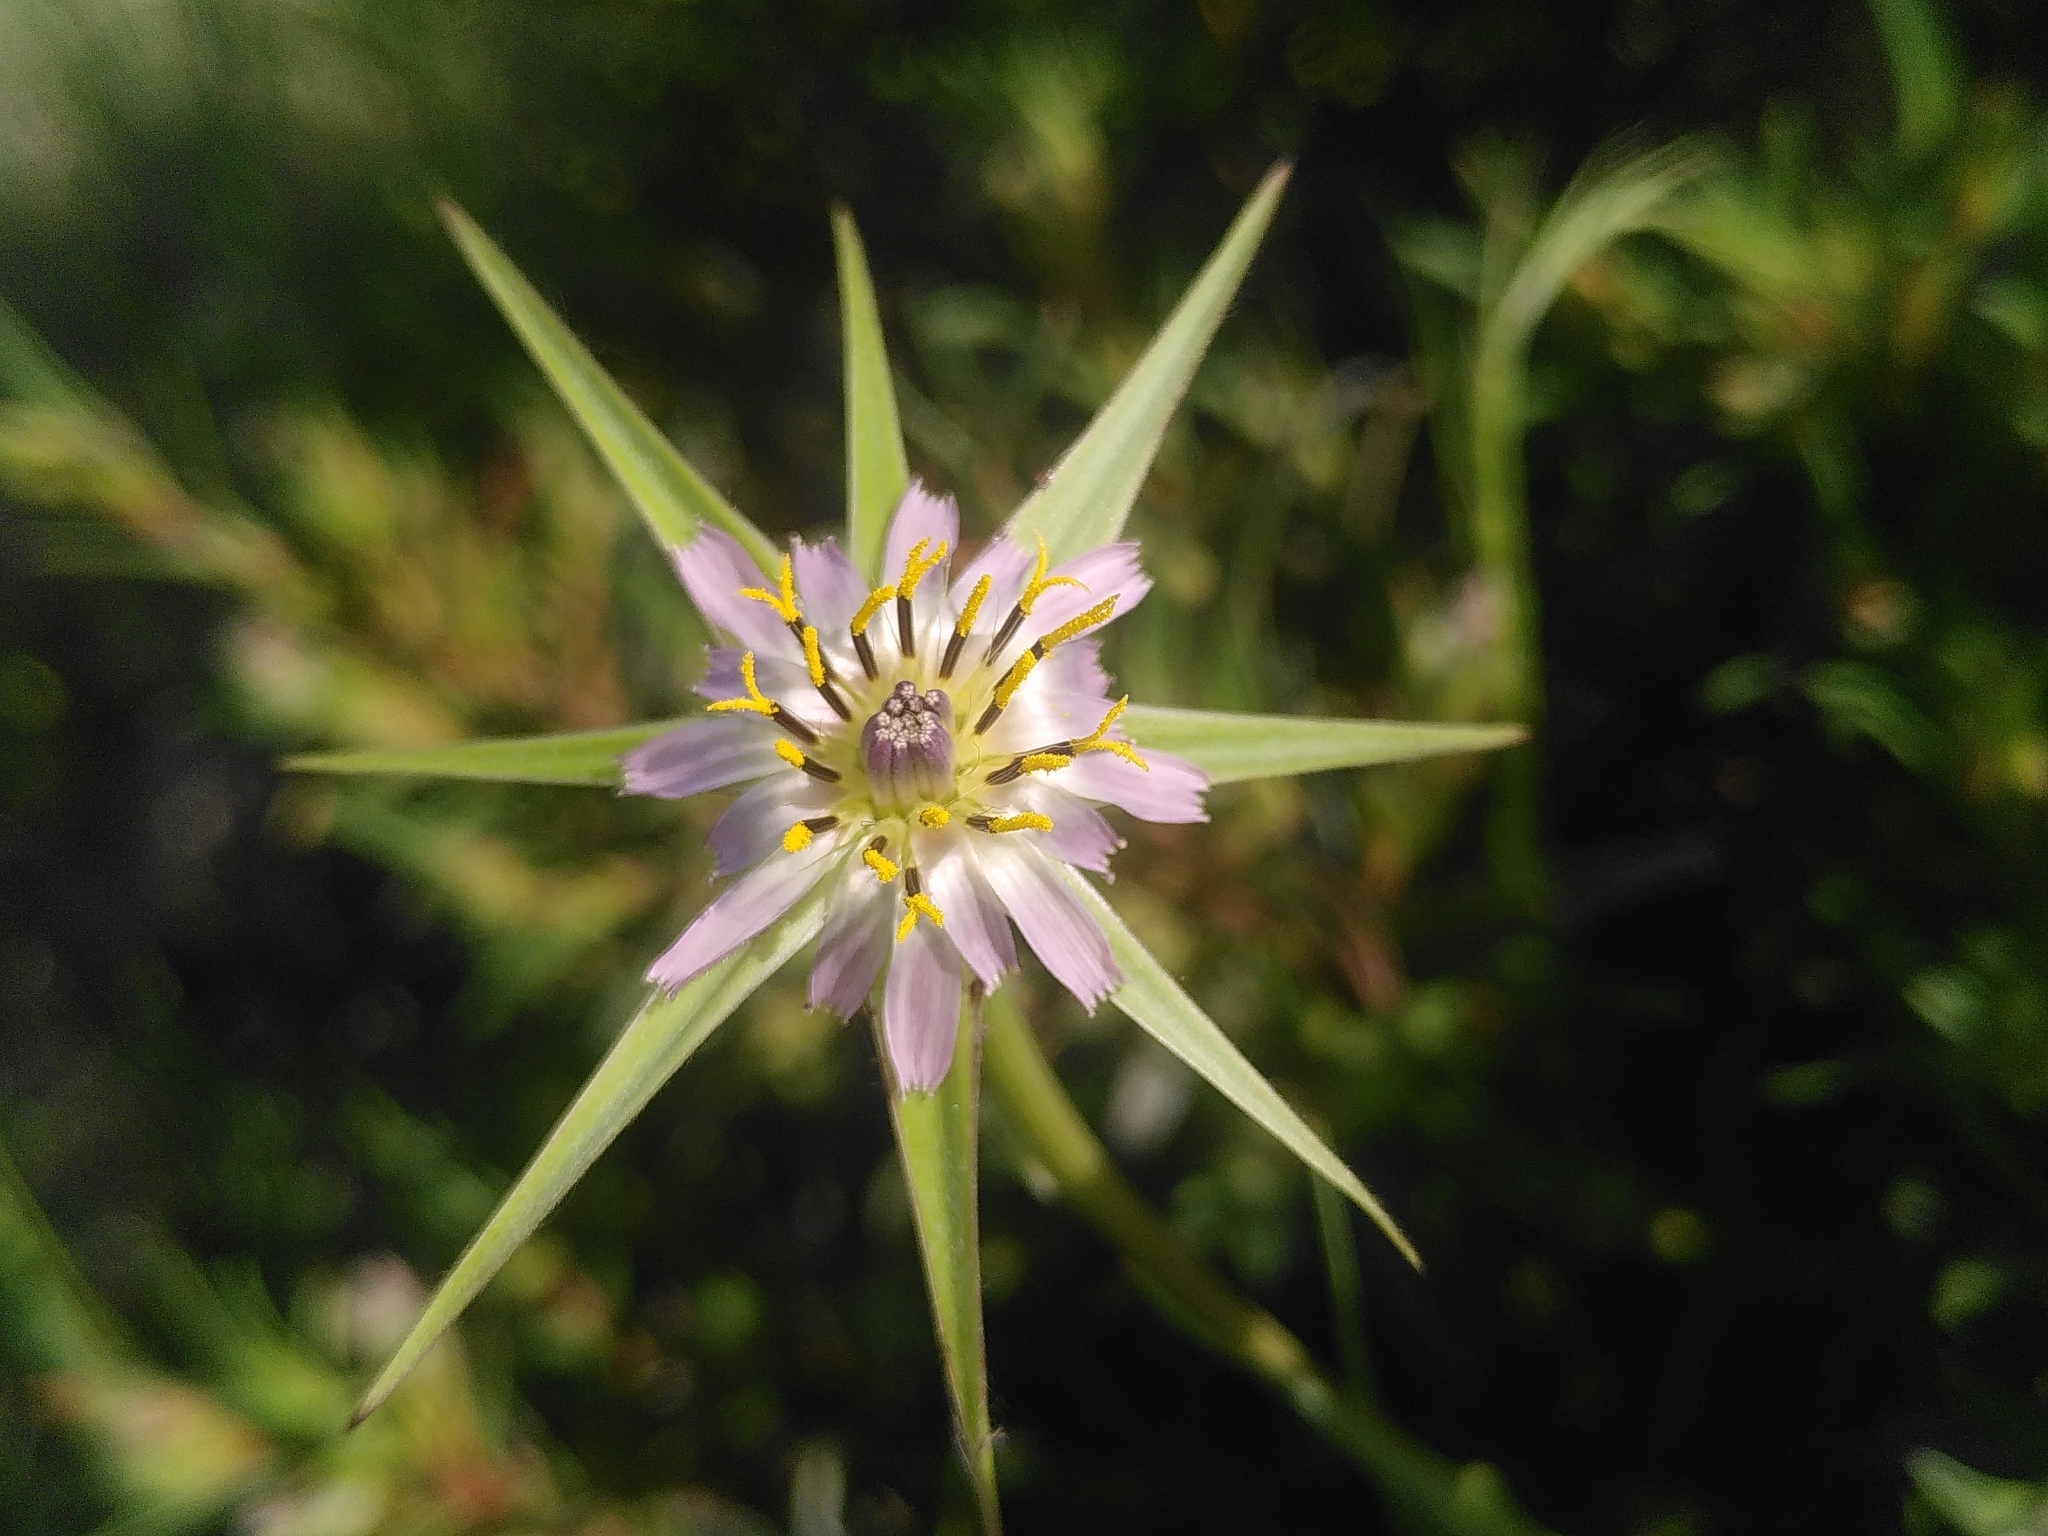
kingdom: Plantae
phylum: Tracheophyta
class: Magnoliopsida
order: Asterales
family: Asteraceae
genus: Tragopogon
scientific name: Tragopogon porrifolius
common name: Salsify
